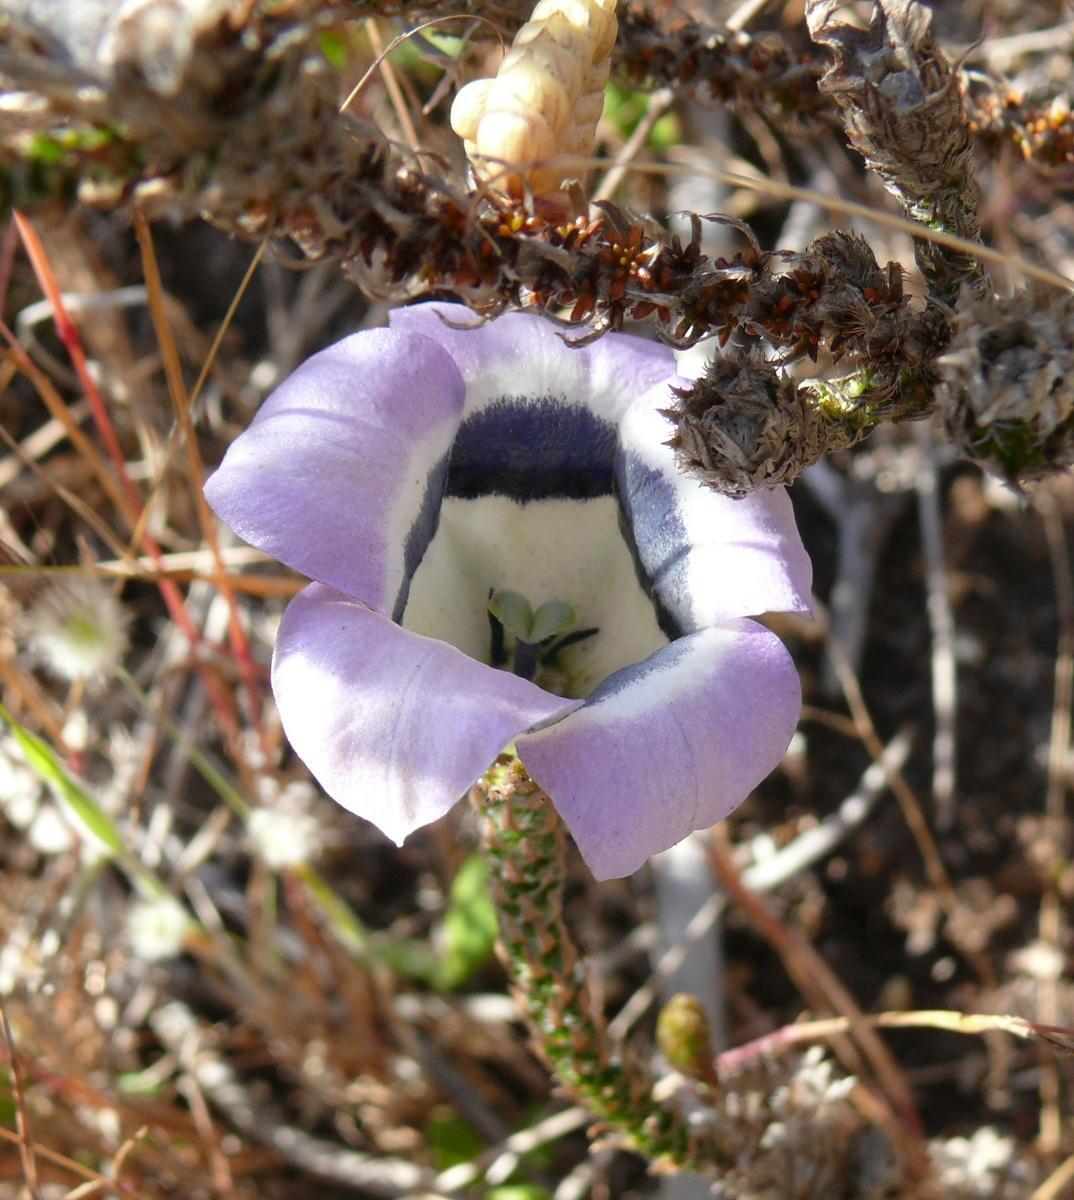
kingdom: Plantae
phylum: Tracheophyta
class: Magnoliopsida
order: Asterales
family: Campanulaceae
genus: Roella
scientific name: Roella ciliata
